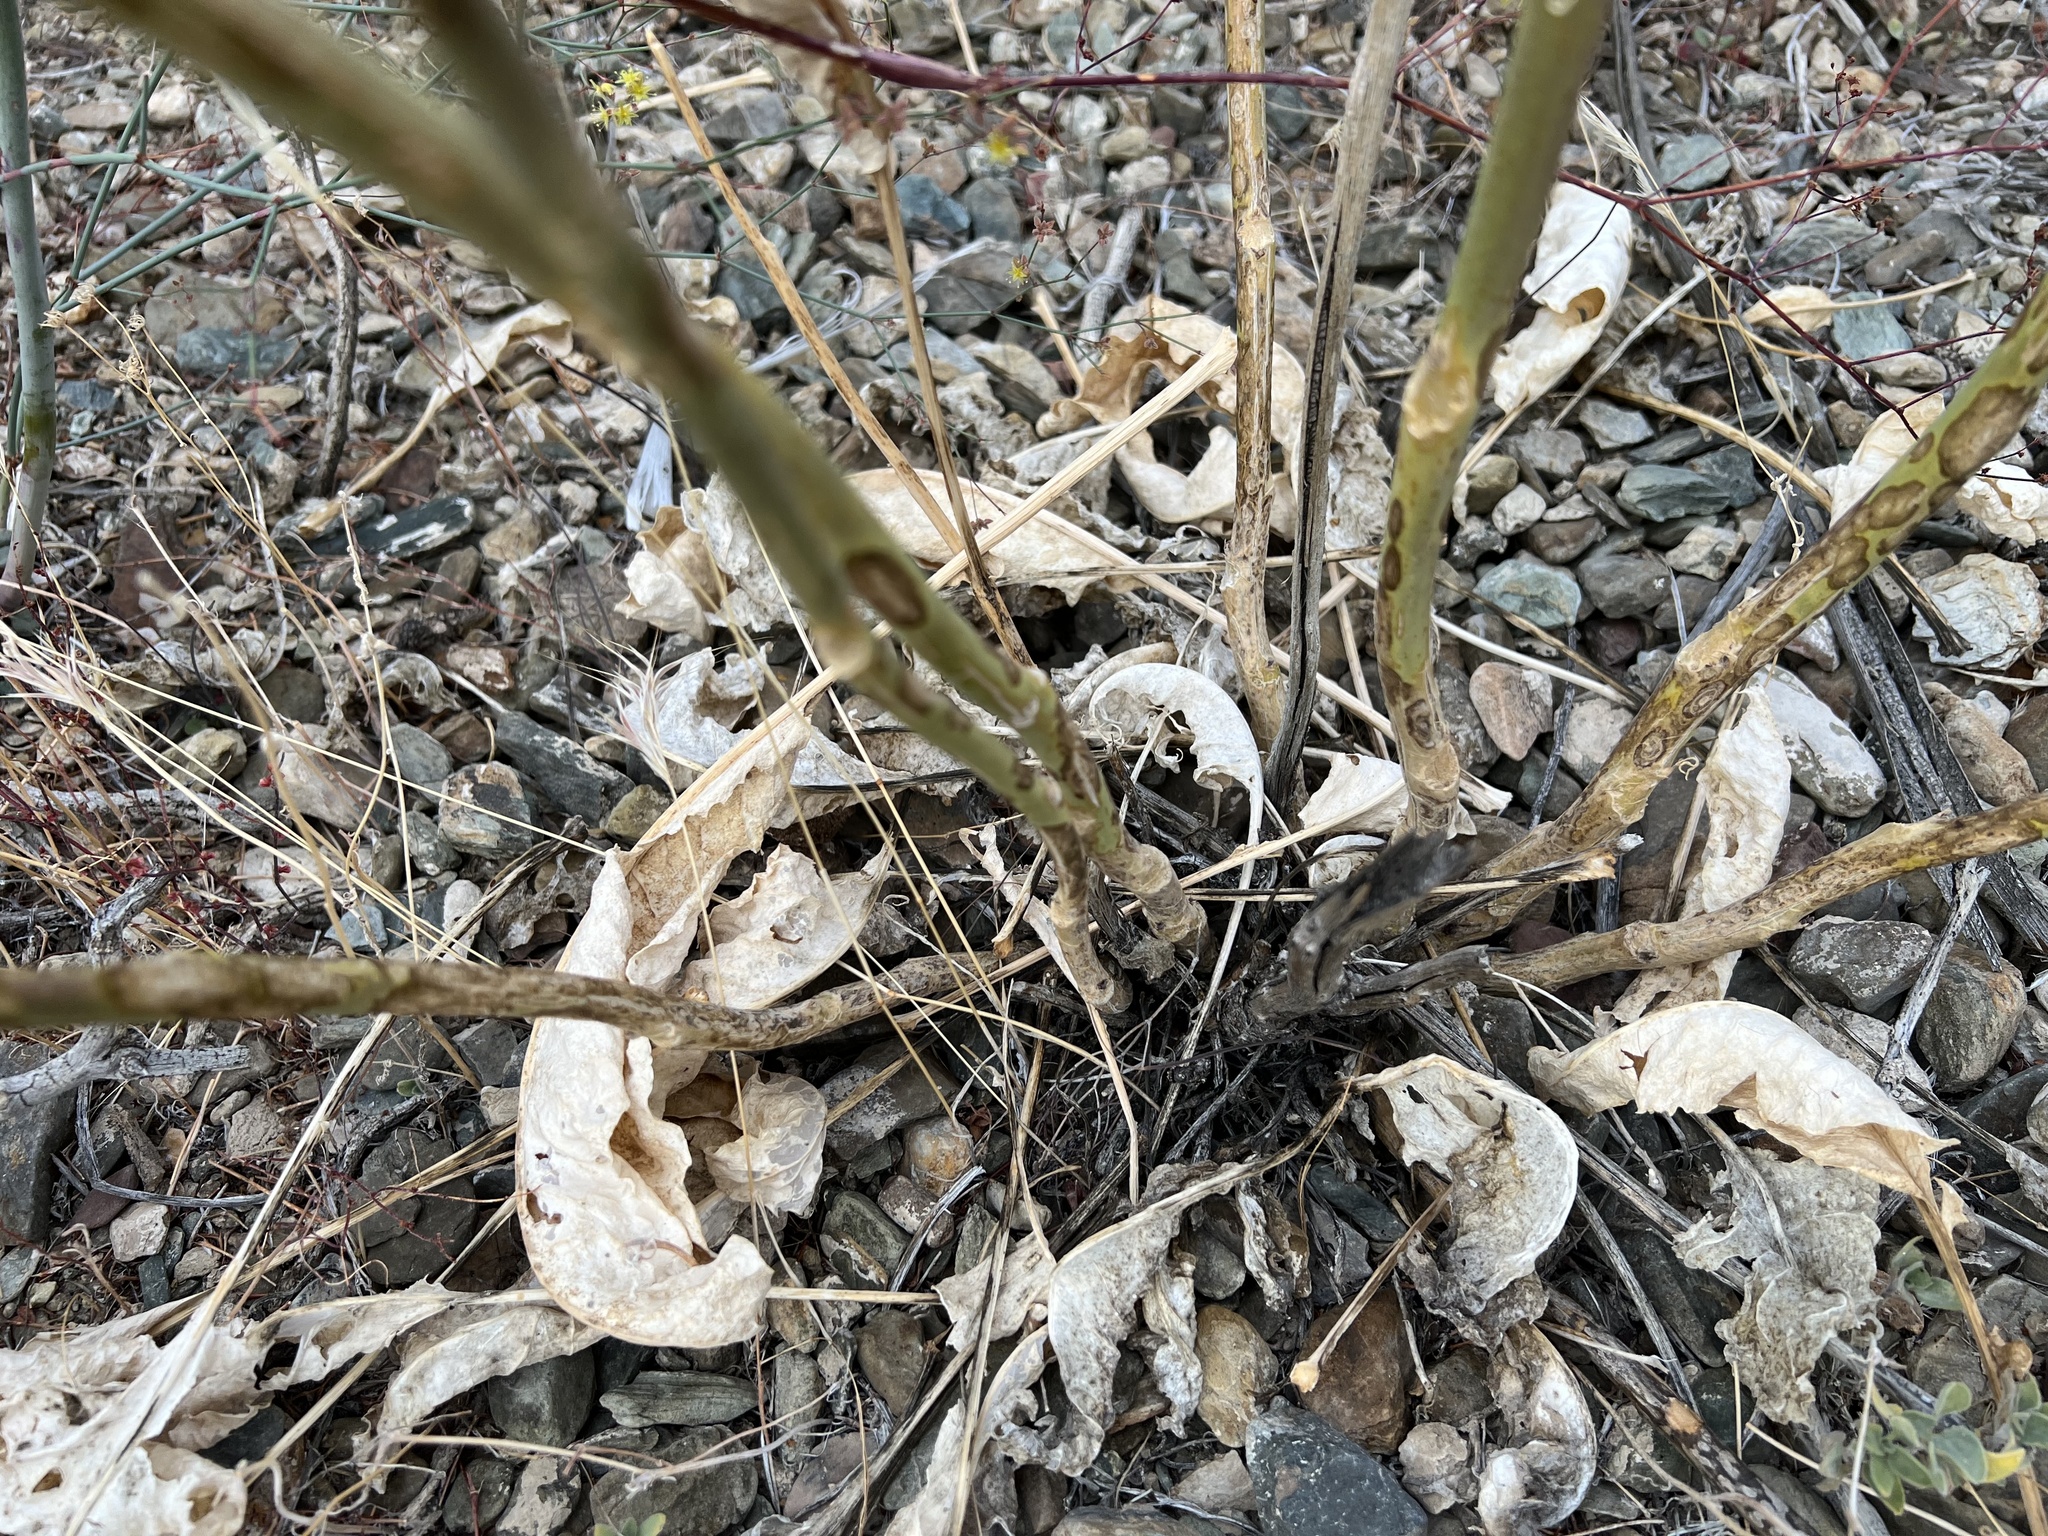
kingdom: Plantae
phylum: Tracheophyta
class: Magnoliopsida
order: Brassicales
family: Brassicaceae
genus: Stanleya
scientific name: Stanleya elata
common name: Panamint prince's plume
